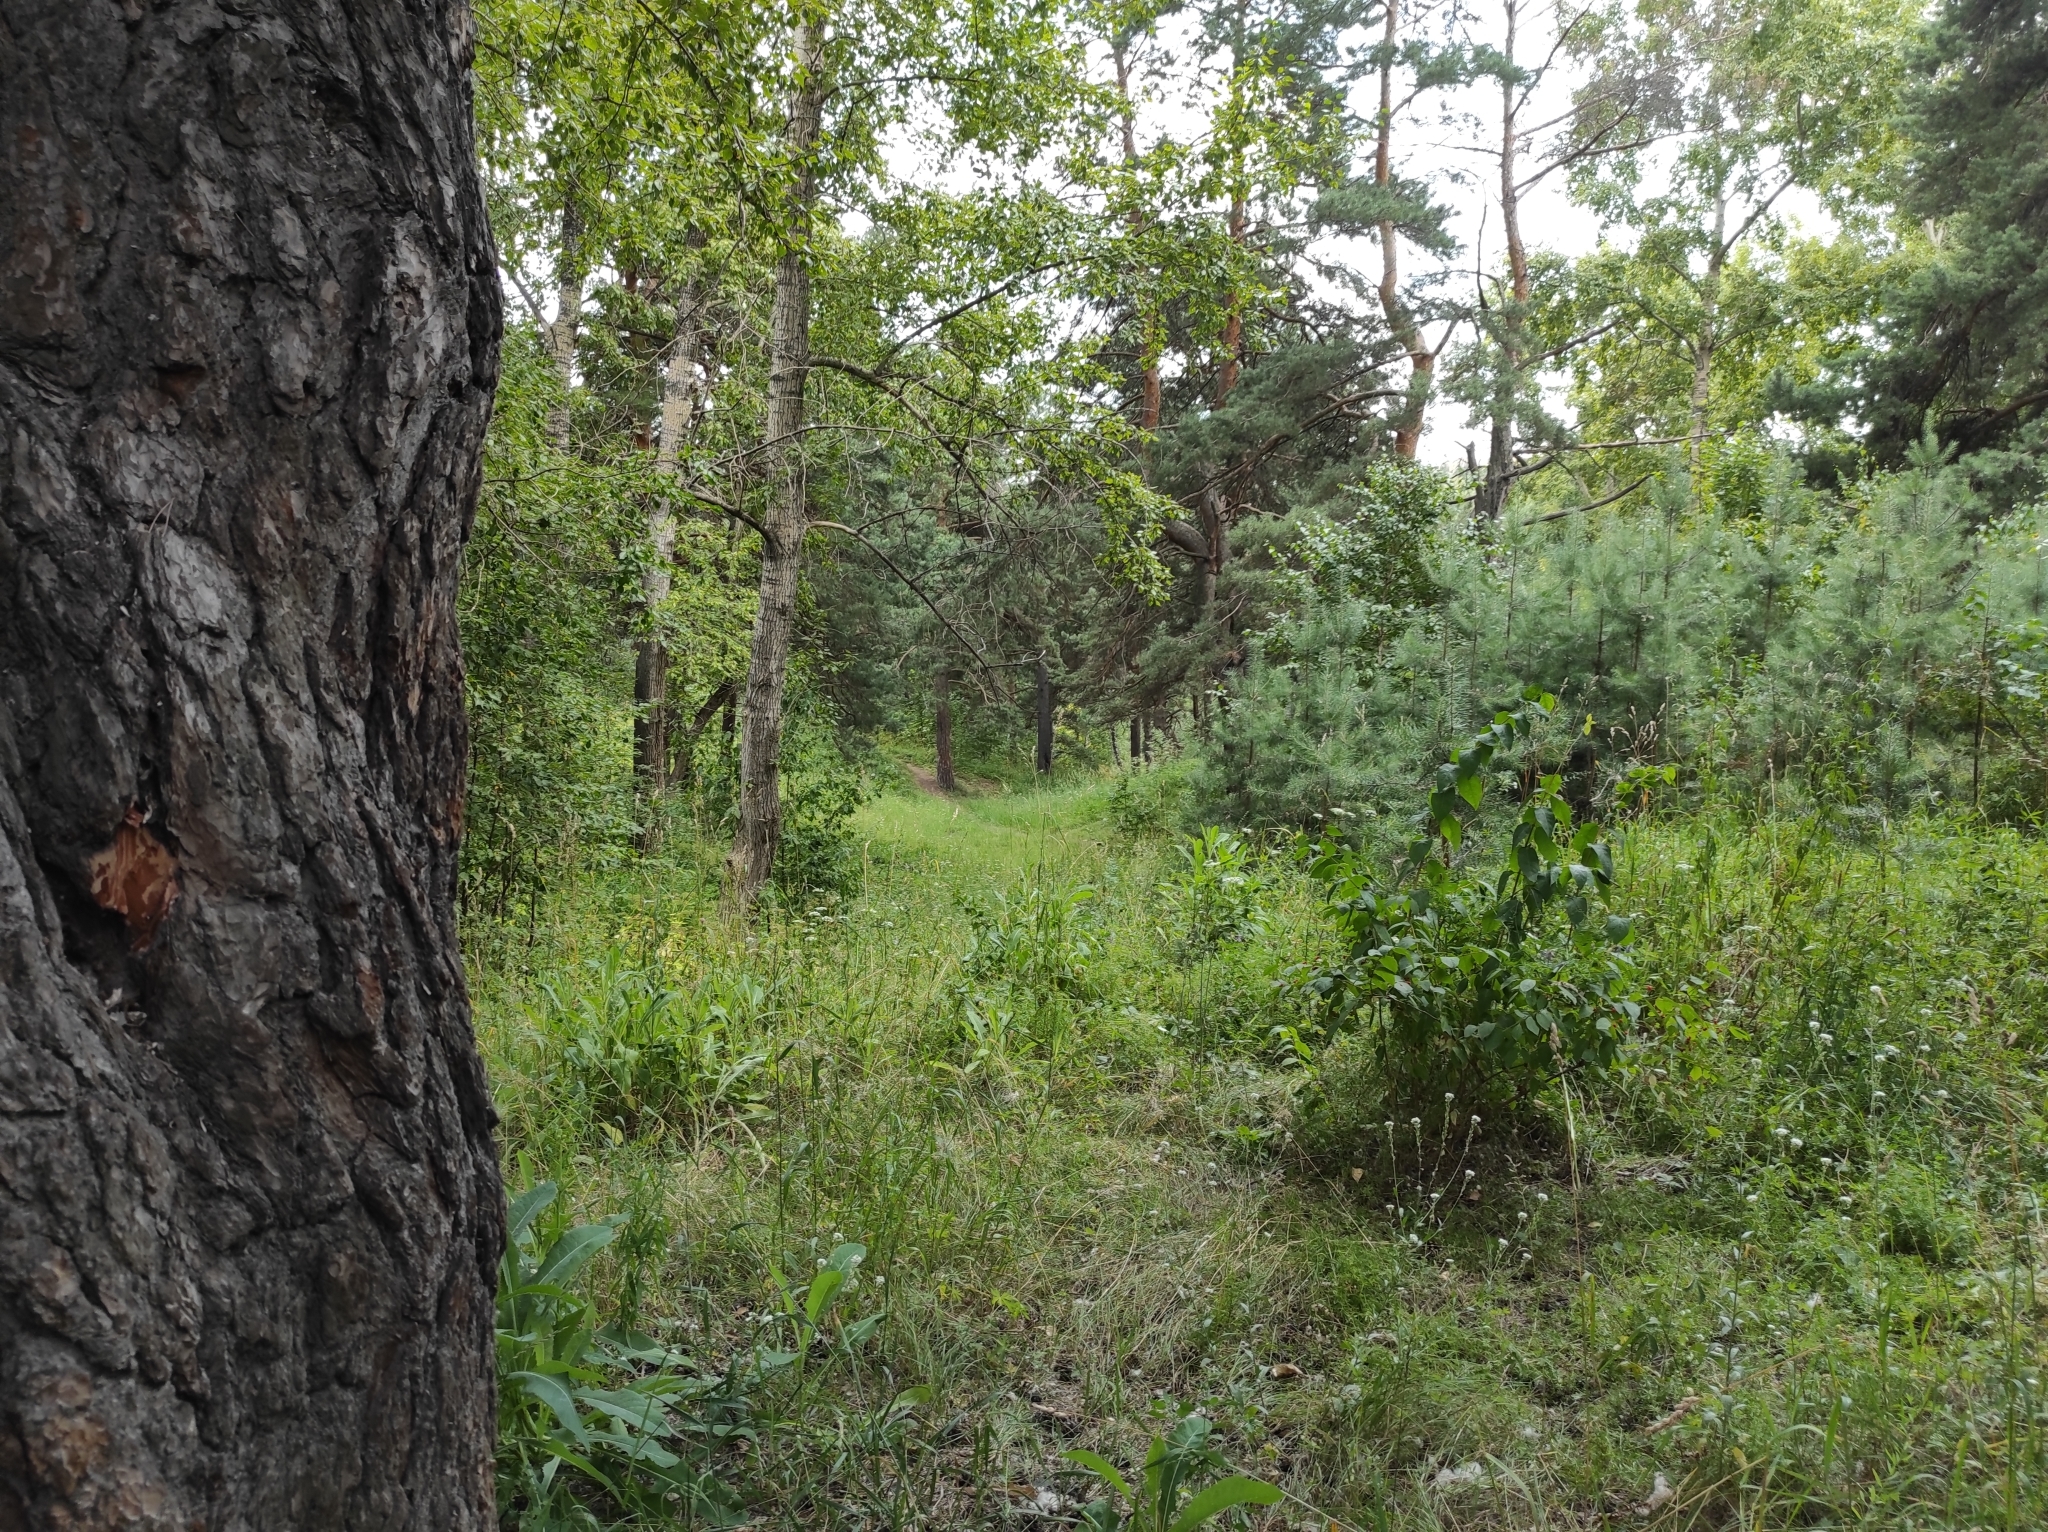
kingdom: Plantae
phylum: Tracheophyta
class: Pinopsida
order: Pinales
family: Pinaceae
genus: Pinus
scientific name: Pinus sylvestris
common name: Scots pine
